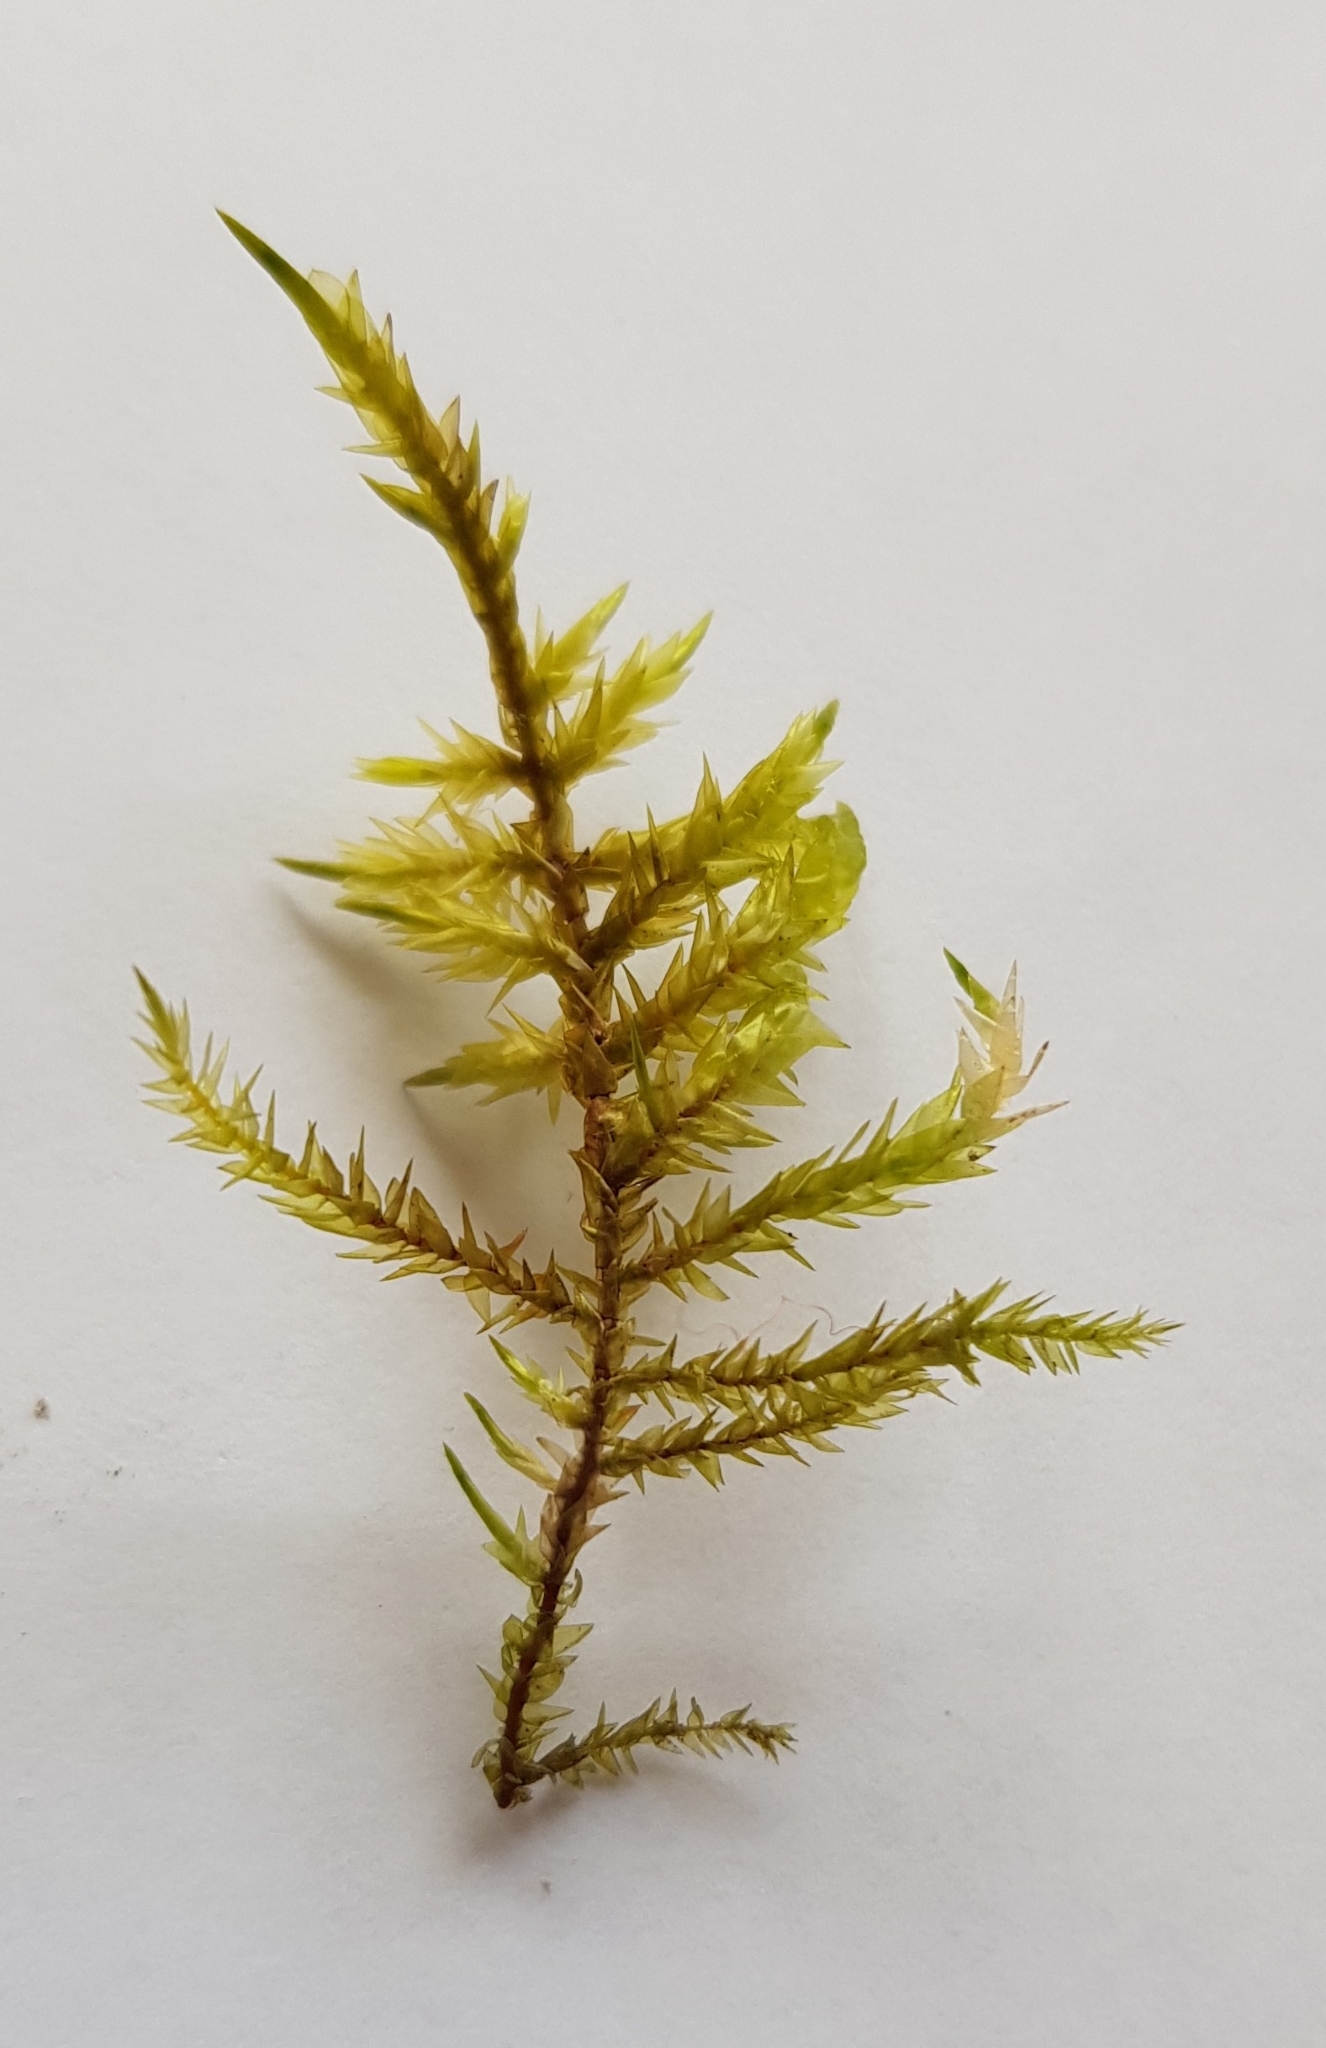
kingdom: Plantae
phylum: Bryophyta
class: Bryopsida
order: Hypnales
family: Pylaisiaceae
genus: Calliergonella
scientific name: Calliergonella cuspidata
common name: Common large wetland moss
